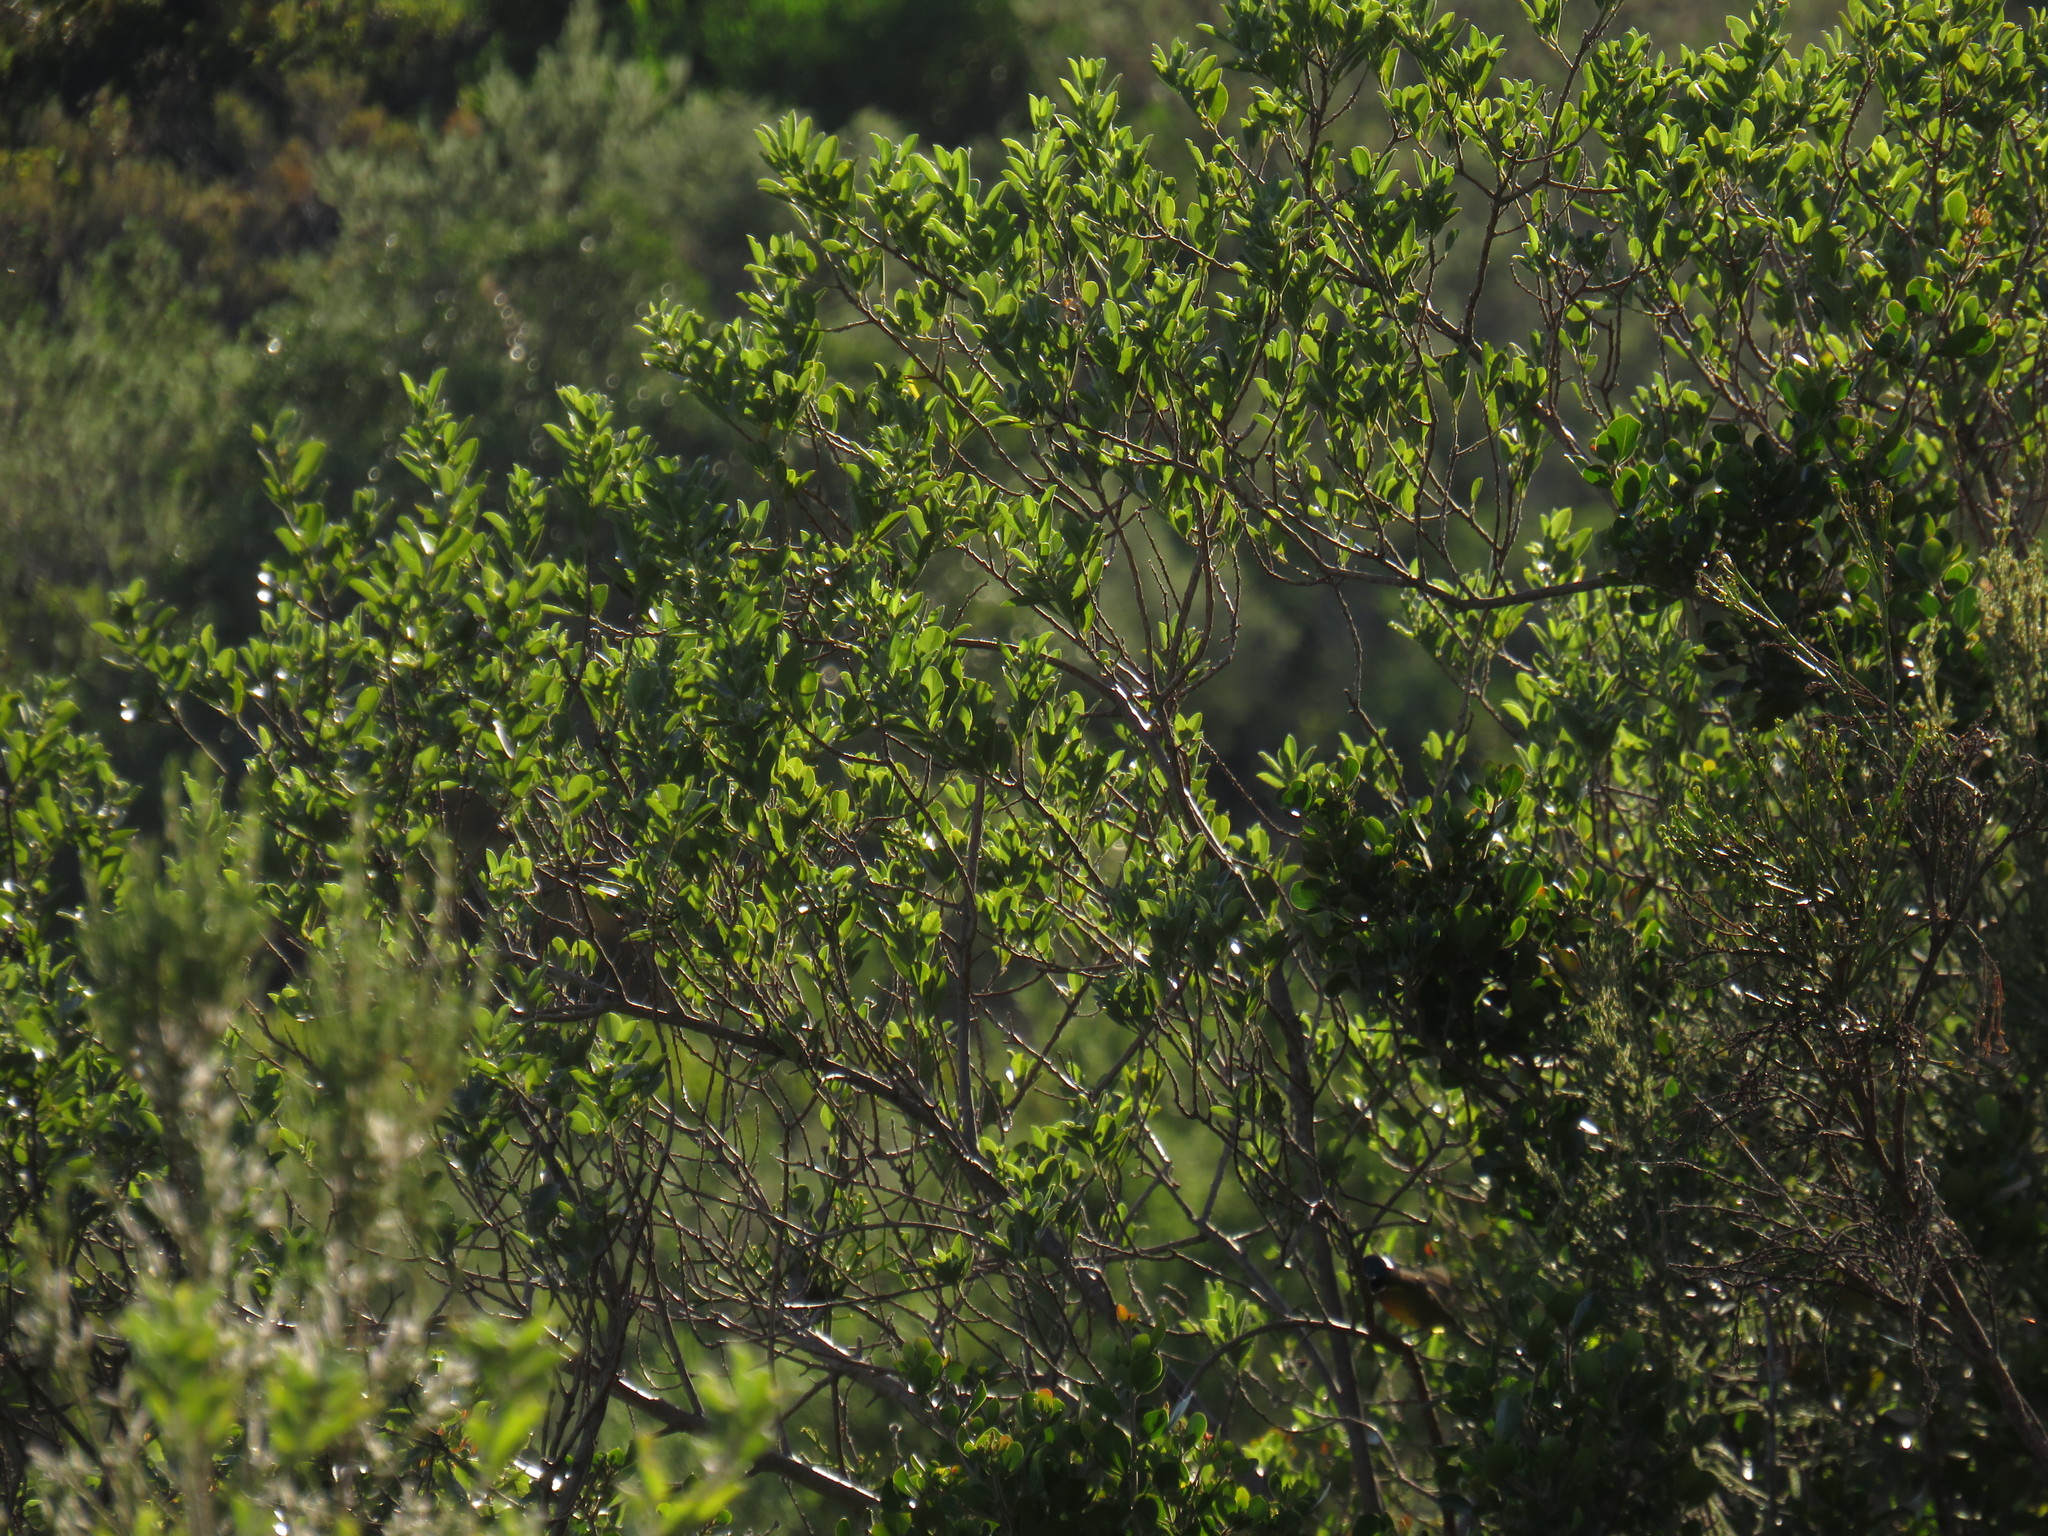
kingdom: Plantae
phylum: Tracheophyta
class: Magnoliopsida
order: Fabales
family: Fabaceae
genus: Podalyria
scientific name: Podalyria calyptrata
